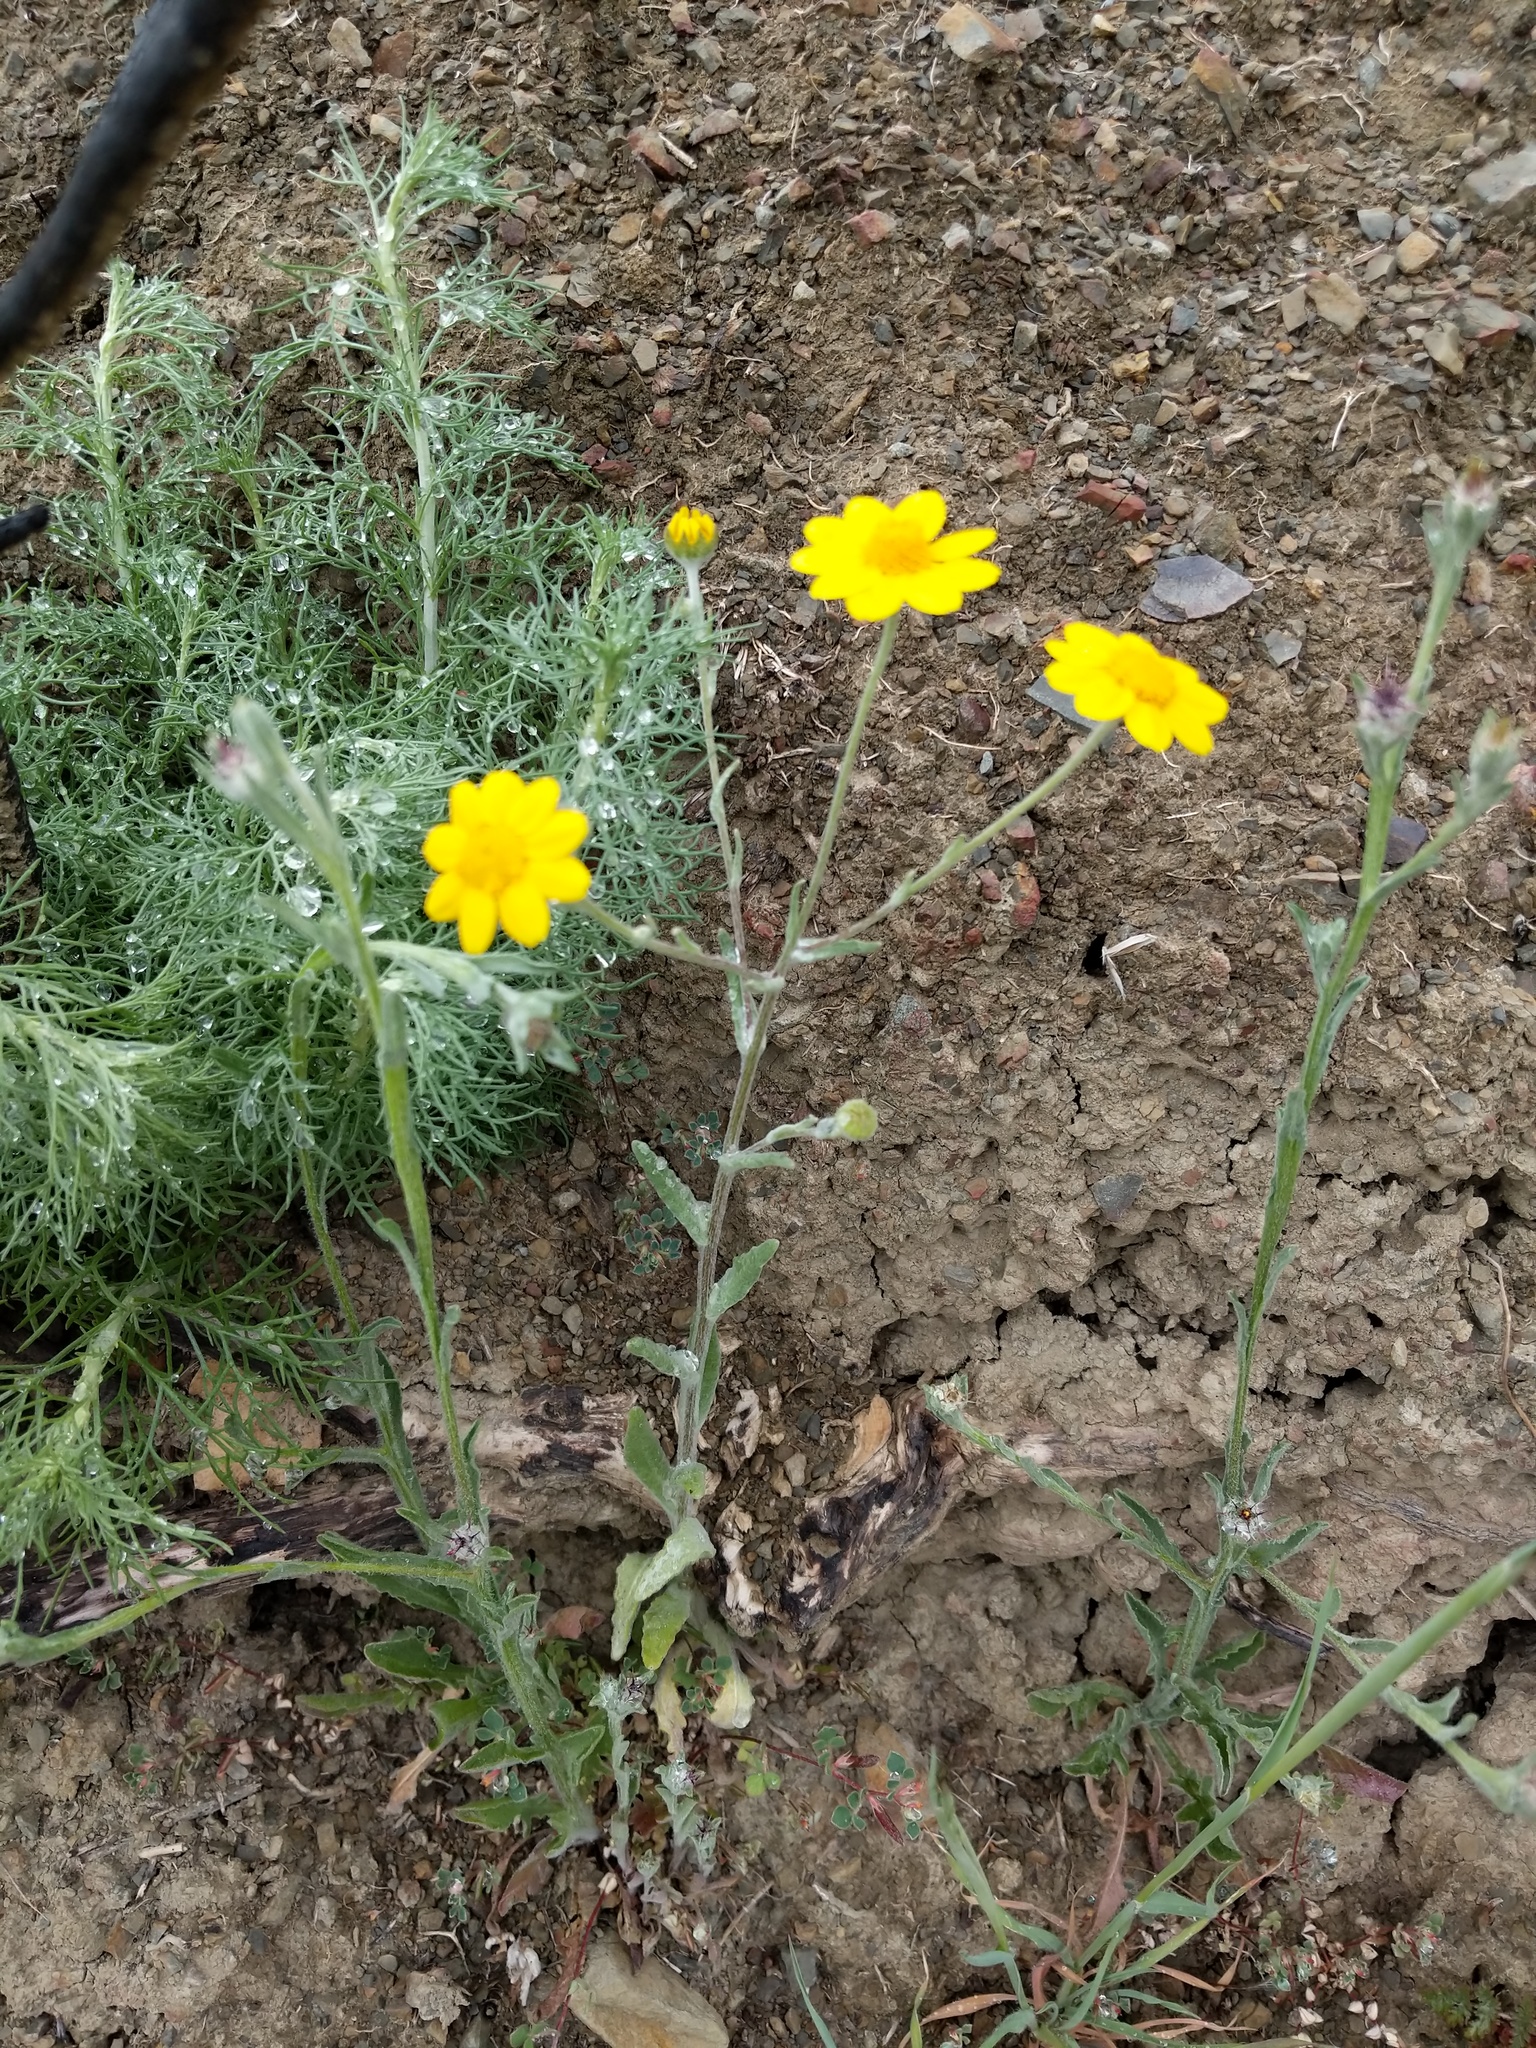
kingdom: Plantae
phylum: Tracheophyta
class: Magnoliopsida
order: Asterales
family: Asteraceae
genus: Monolopia
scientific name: Monolopia gracilens
